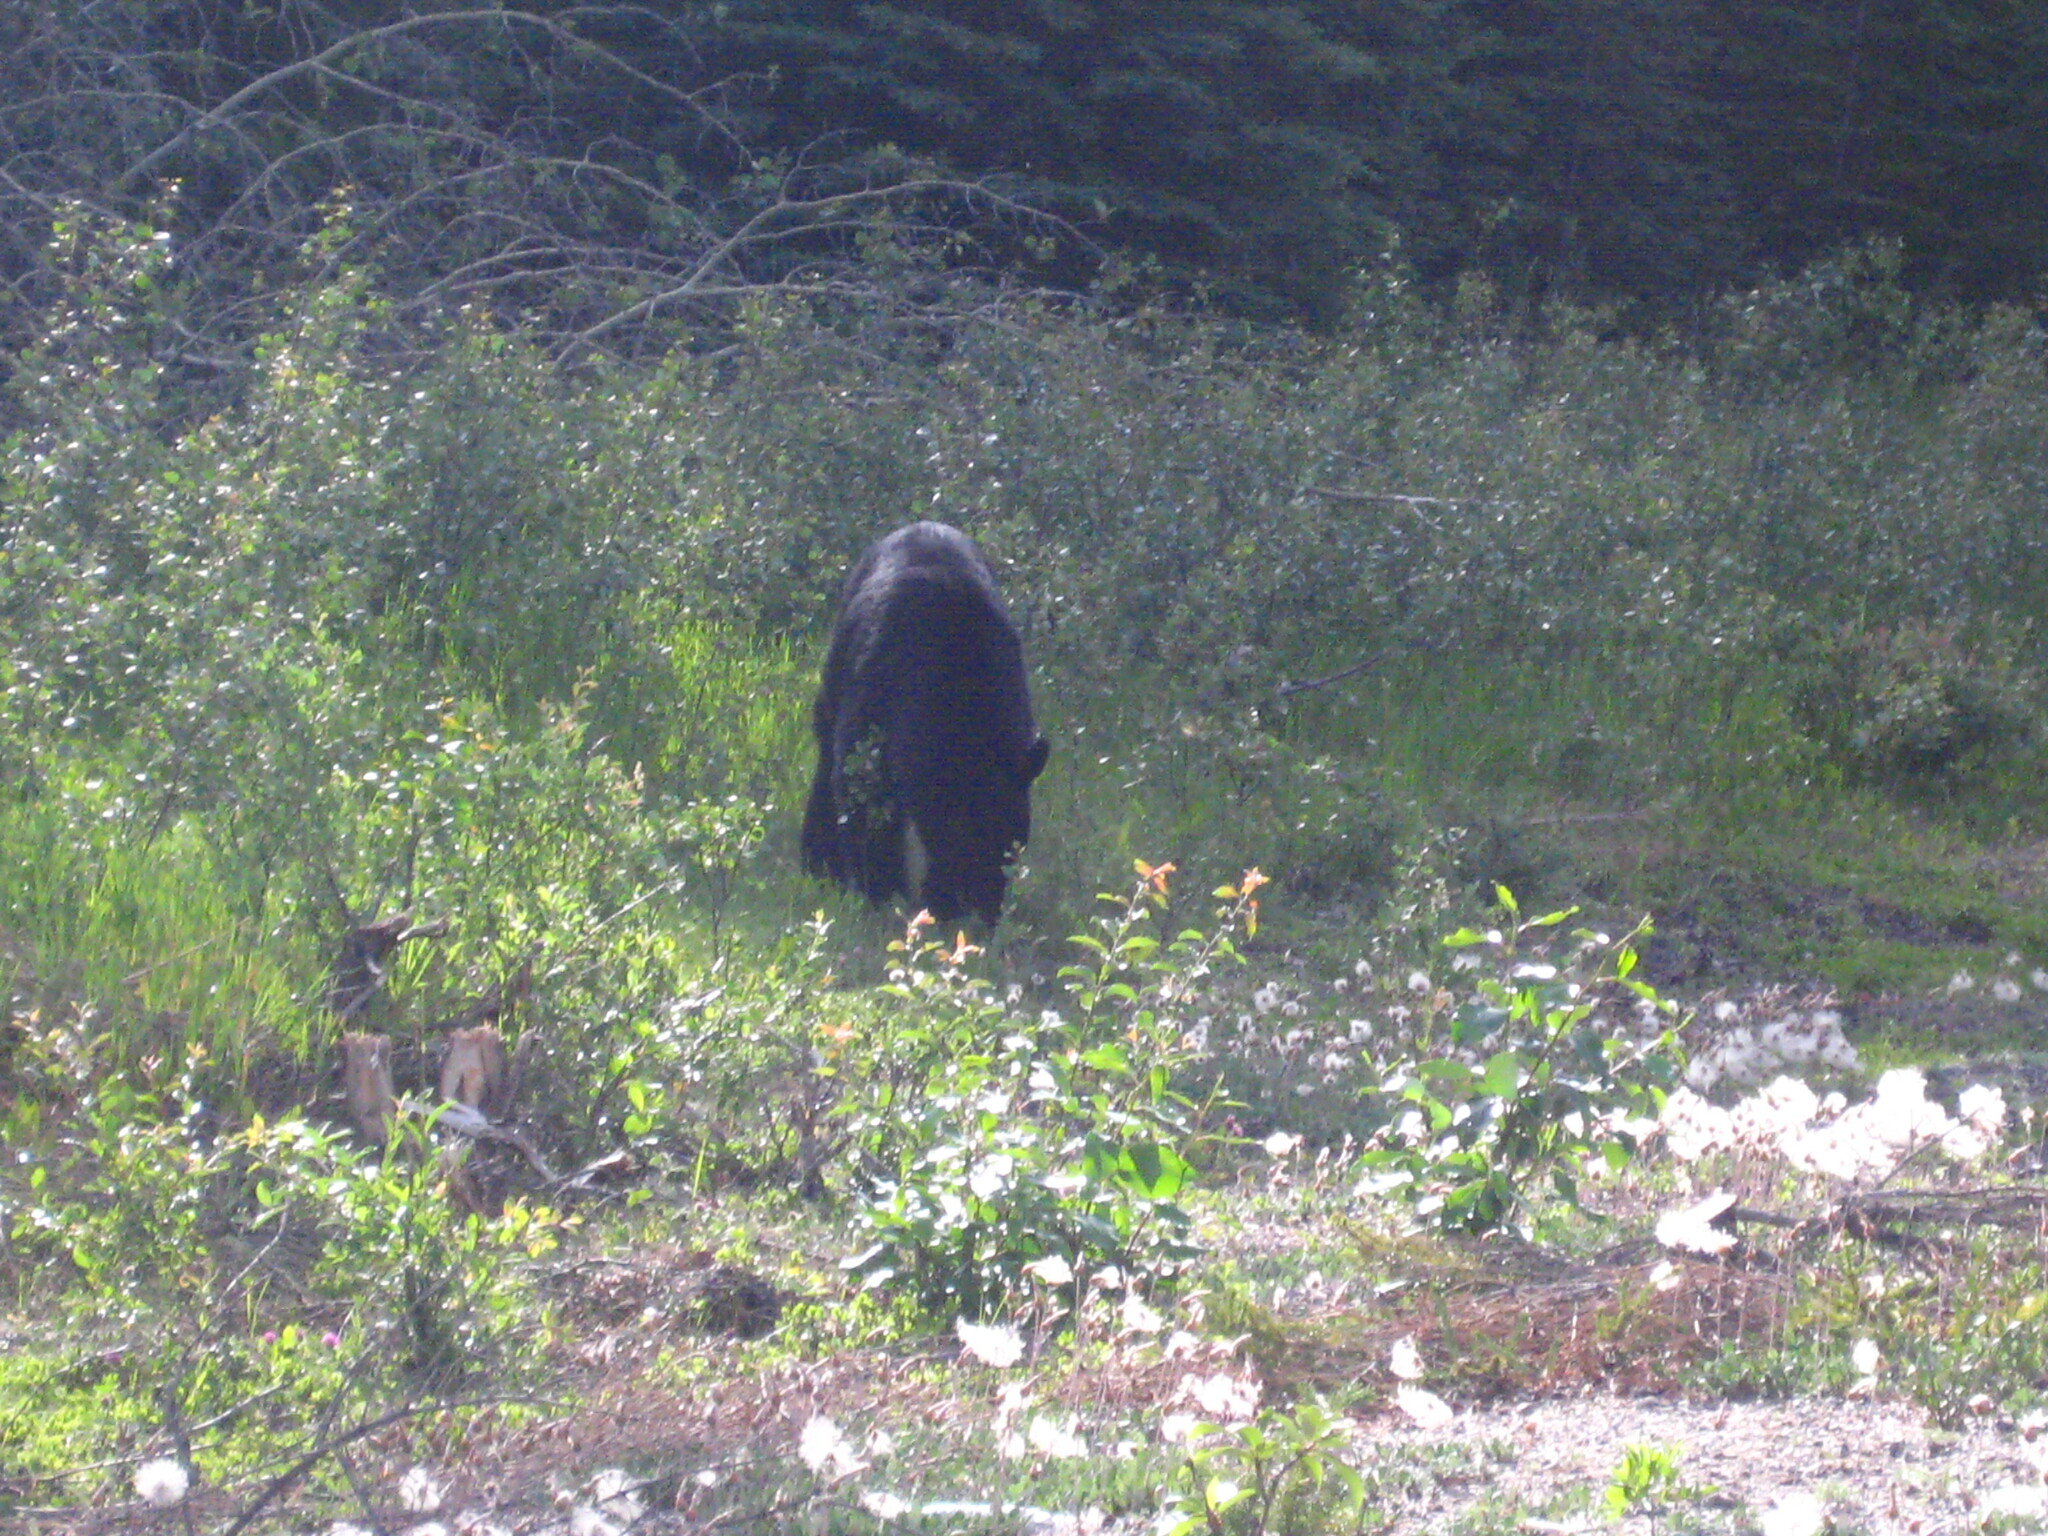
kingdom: Animalia
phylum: Chordata
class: Mammalia
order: Carnivora
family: Ursidae
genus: Ursus
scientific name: Ursus americanus
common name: American black bear
